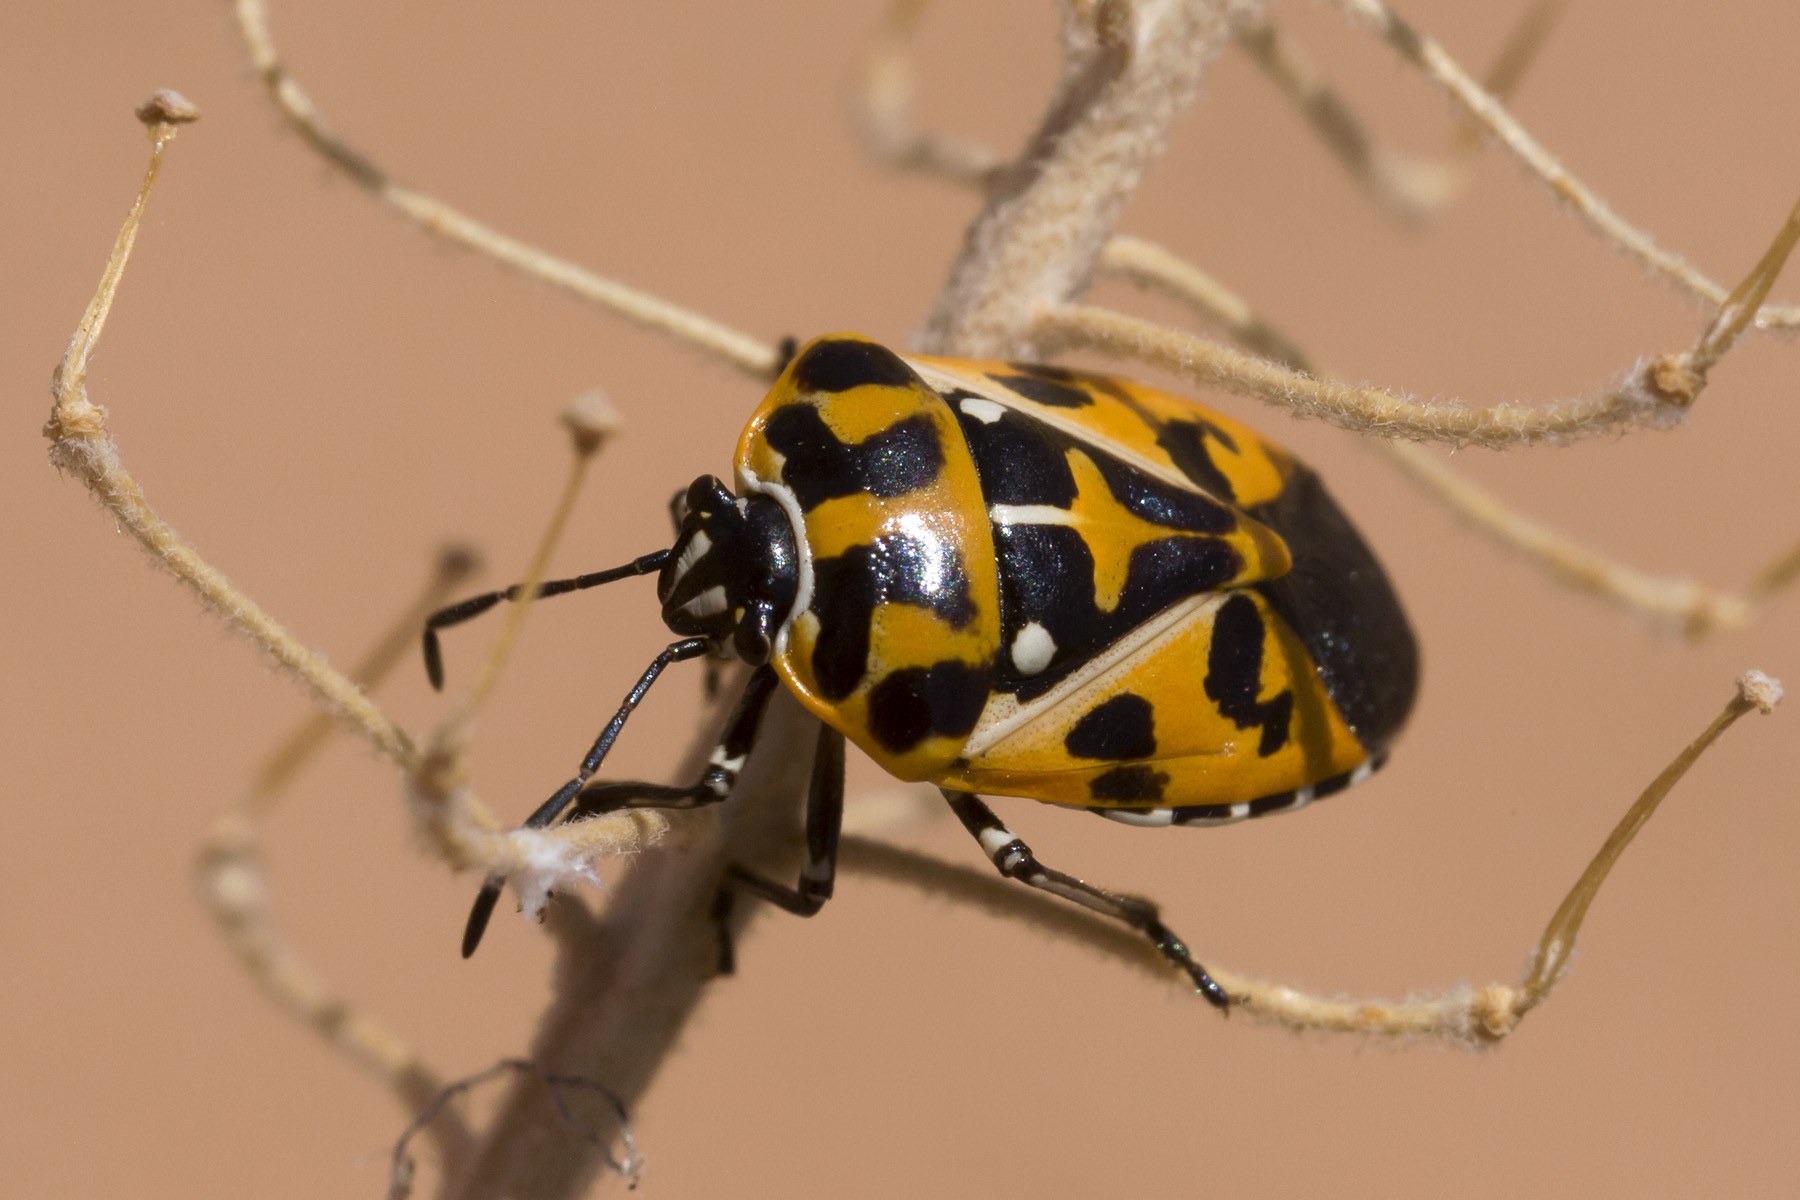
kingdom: Animalia
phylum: Arthropoda
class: Insecta
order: Hemiptera
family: Pentatomidae
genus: Murgantia
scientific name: Murgantia histrionica
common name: Harlequin bug
